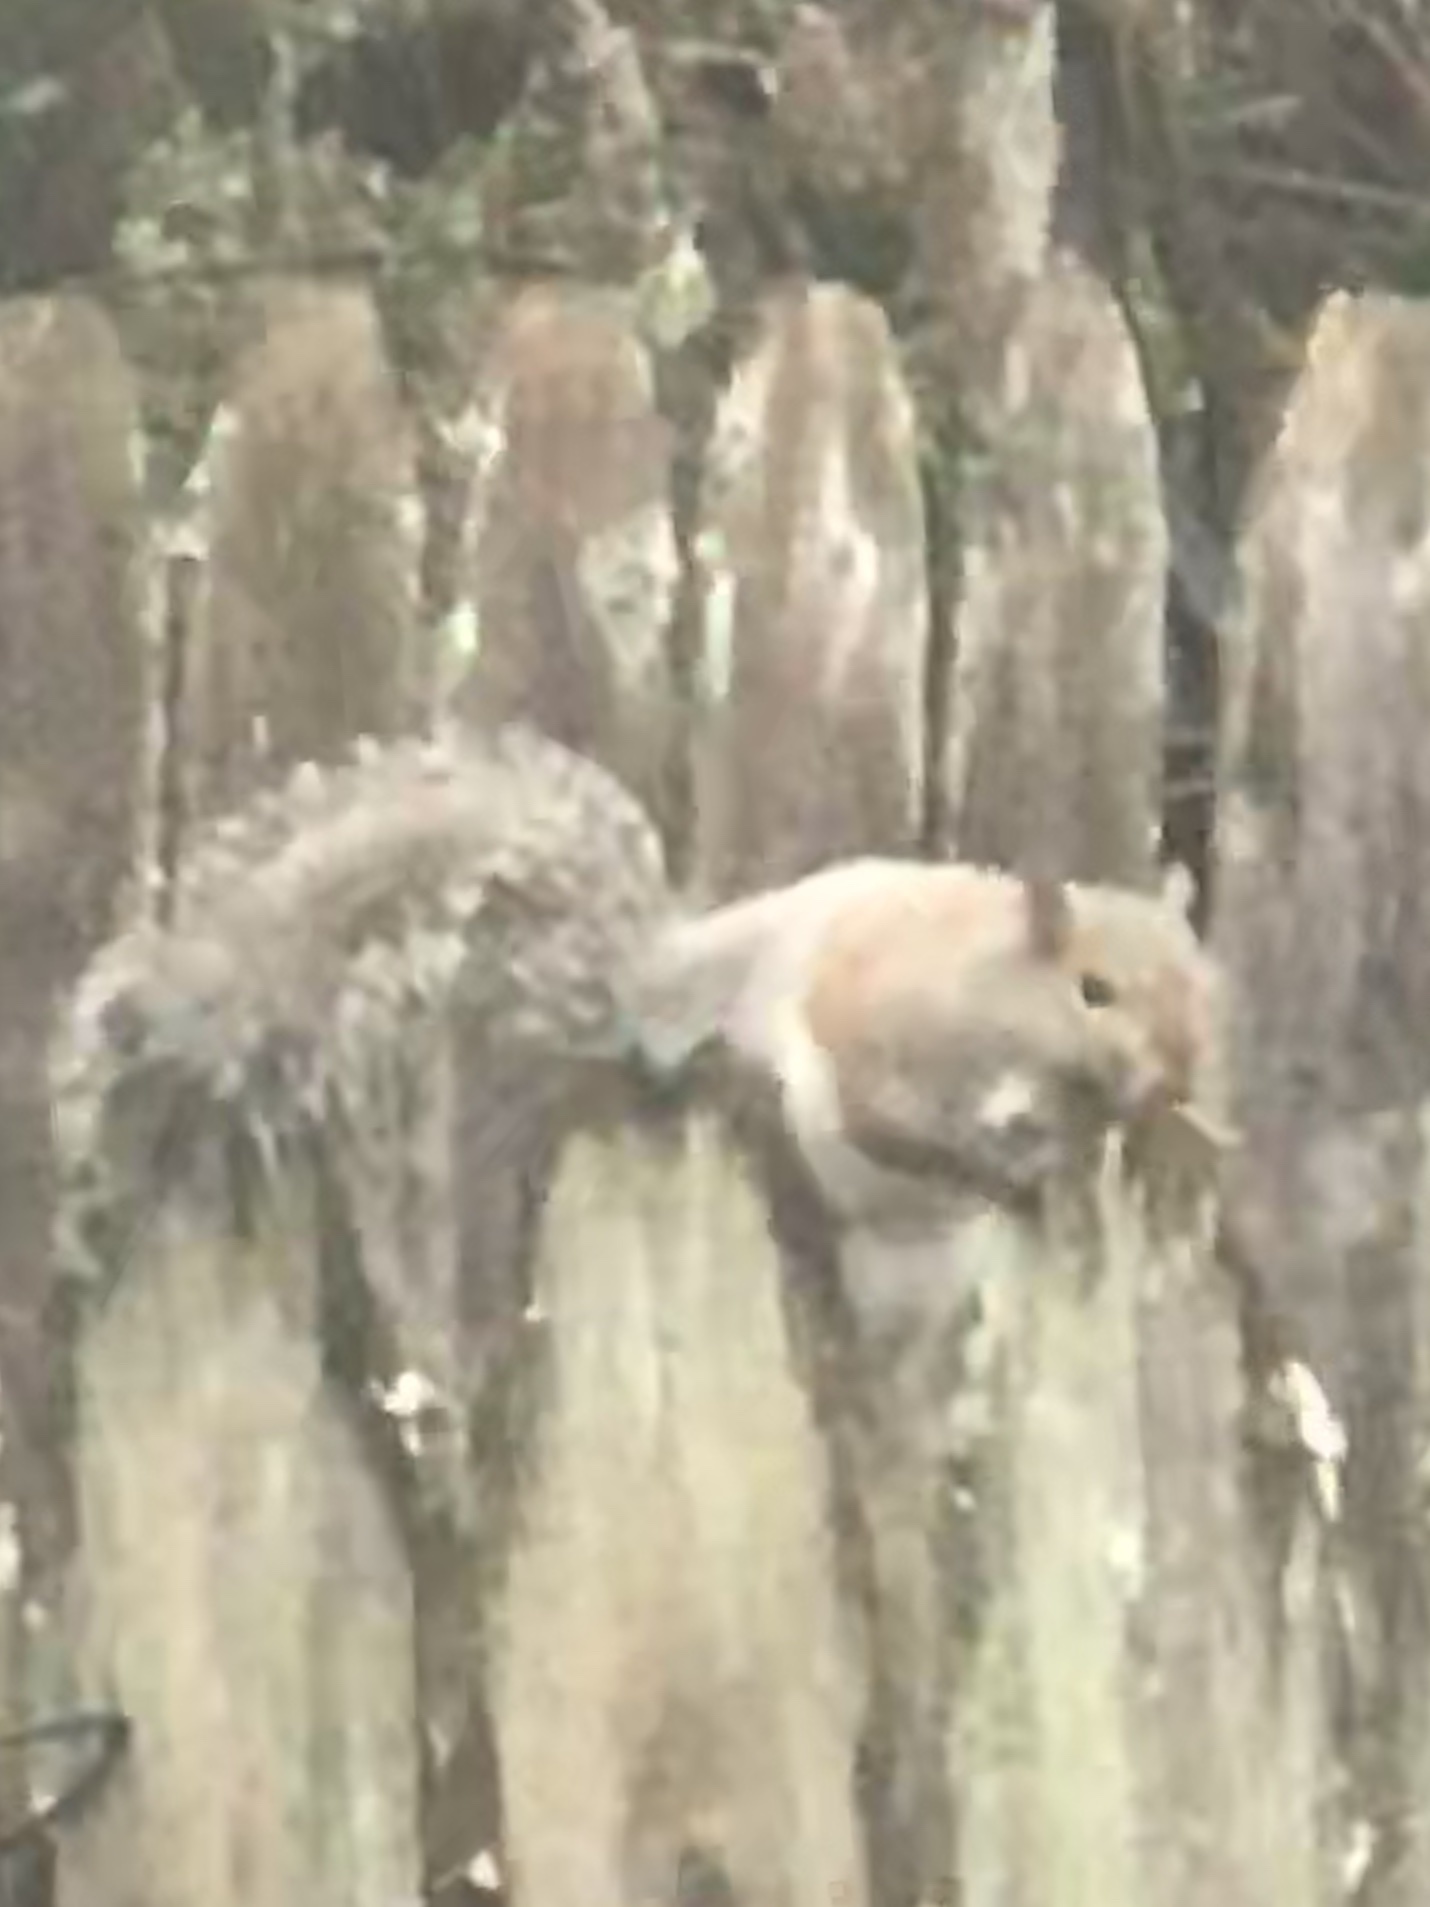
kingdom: Animalia
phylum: Chordata
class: Mammalia
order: Rodentia
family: Sciuridae
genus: Sciurus
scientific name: Sciurus carolinensis
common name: Eastern gray squirrel
